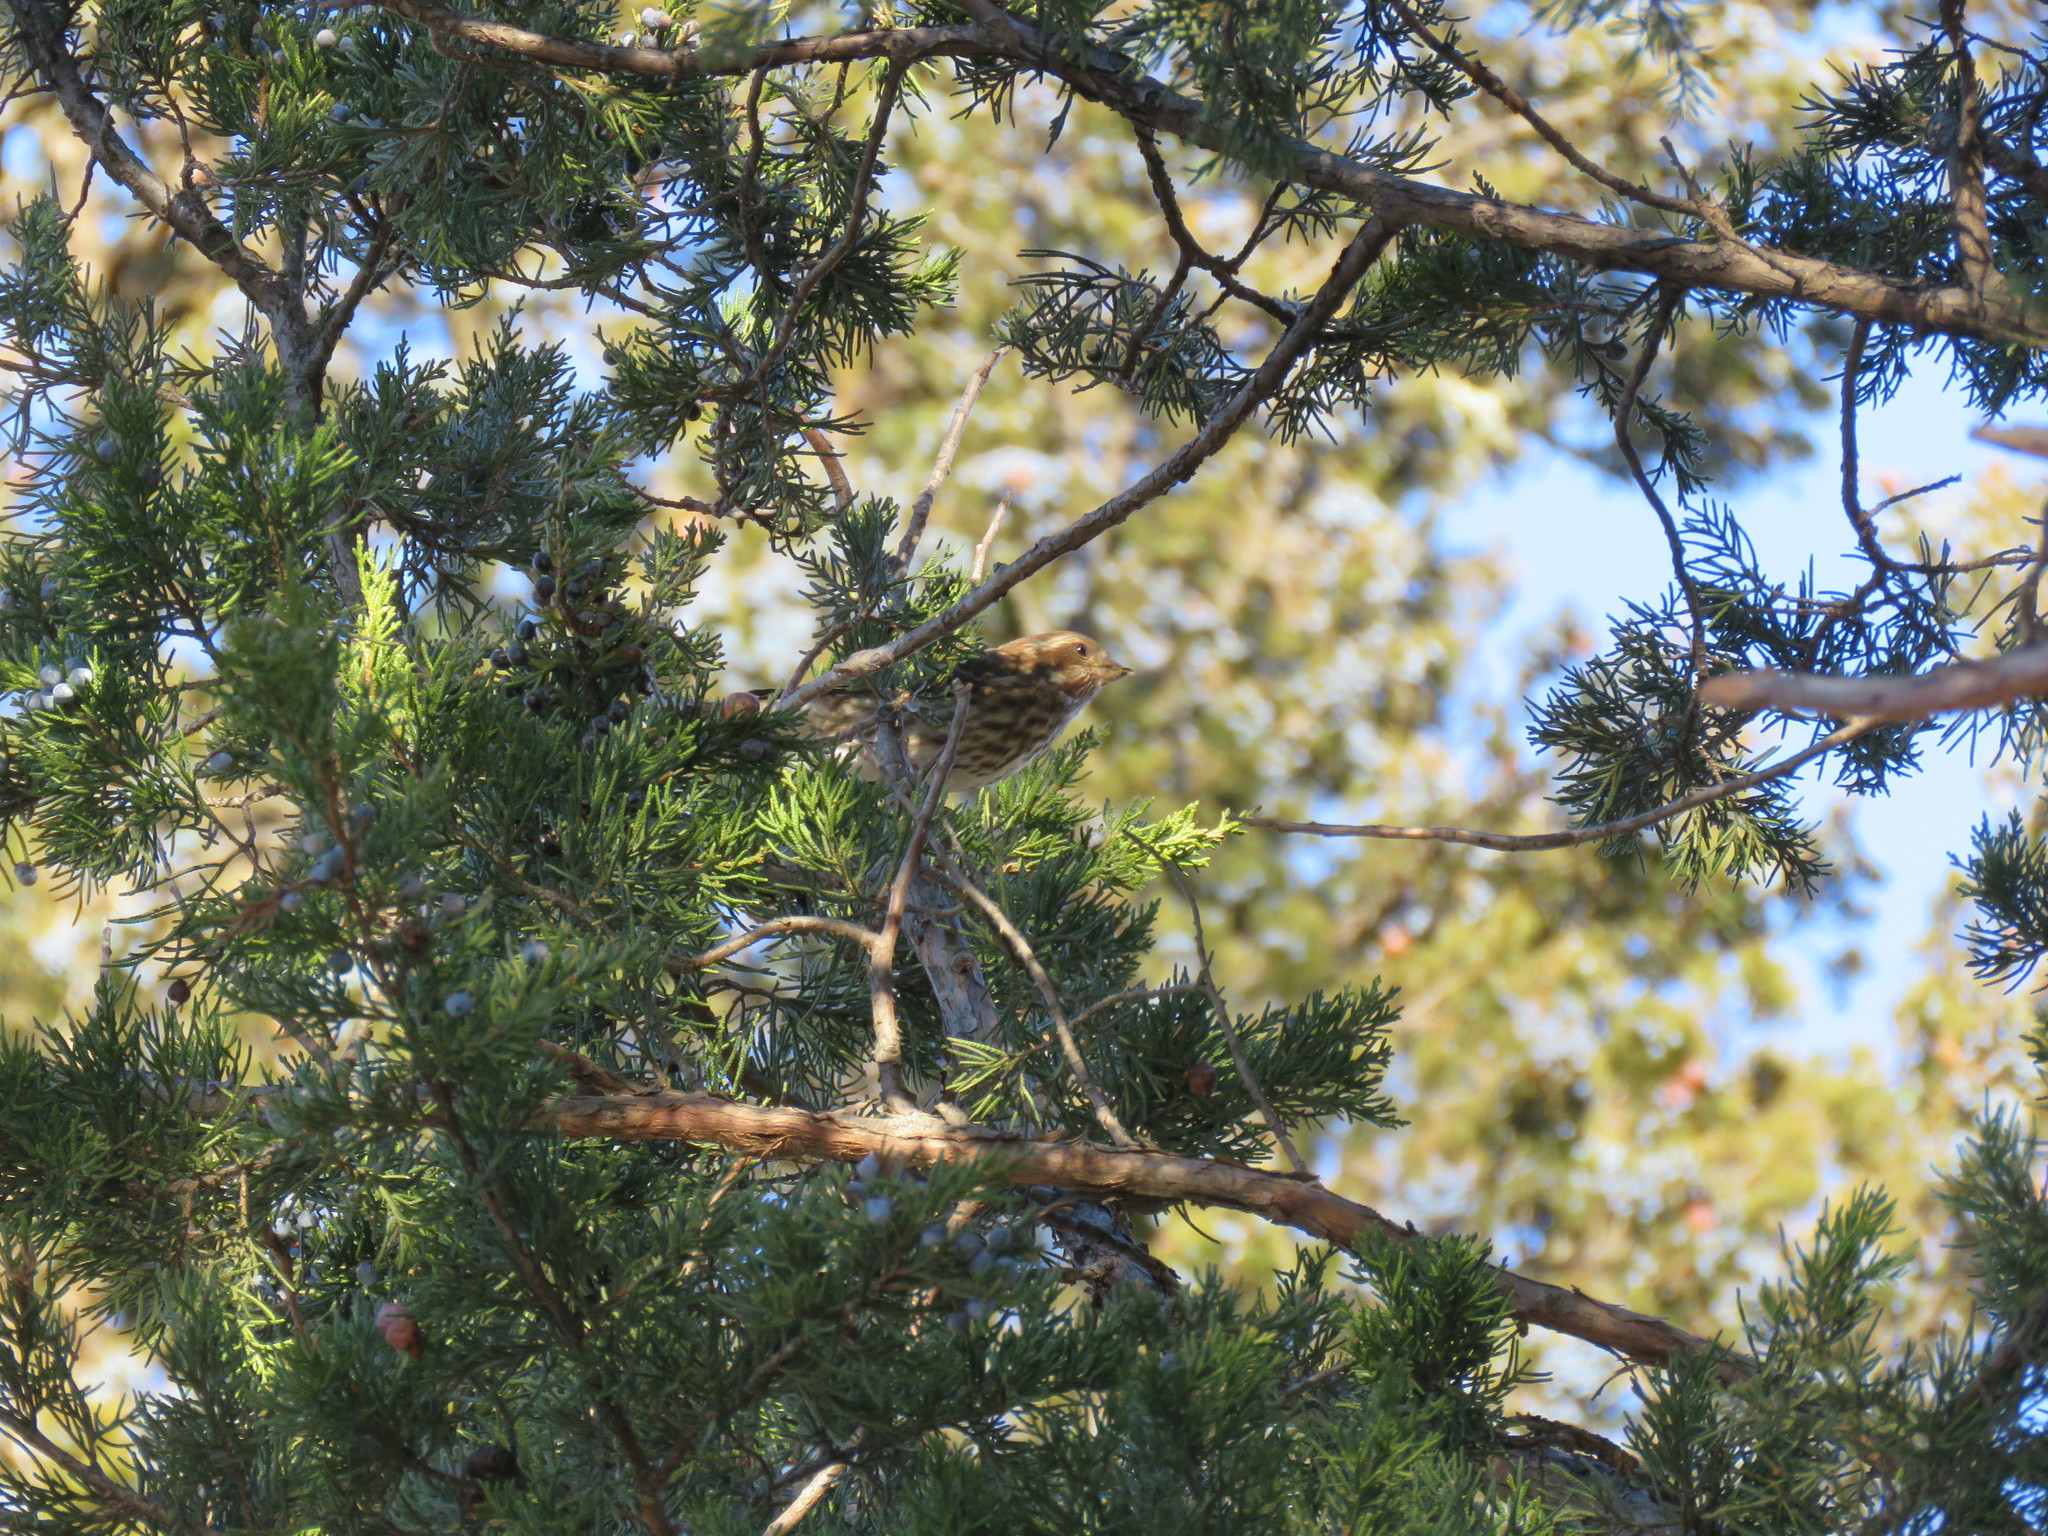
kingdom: Animalia
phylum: Chordata
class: Aves
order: Passeriformes
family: Fringillidae
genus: Haemorhous
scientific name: Haemorhous purpureus
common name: Purple finch
